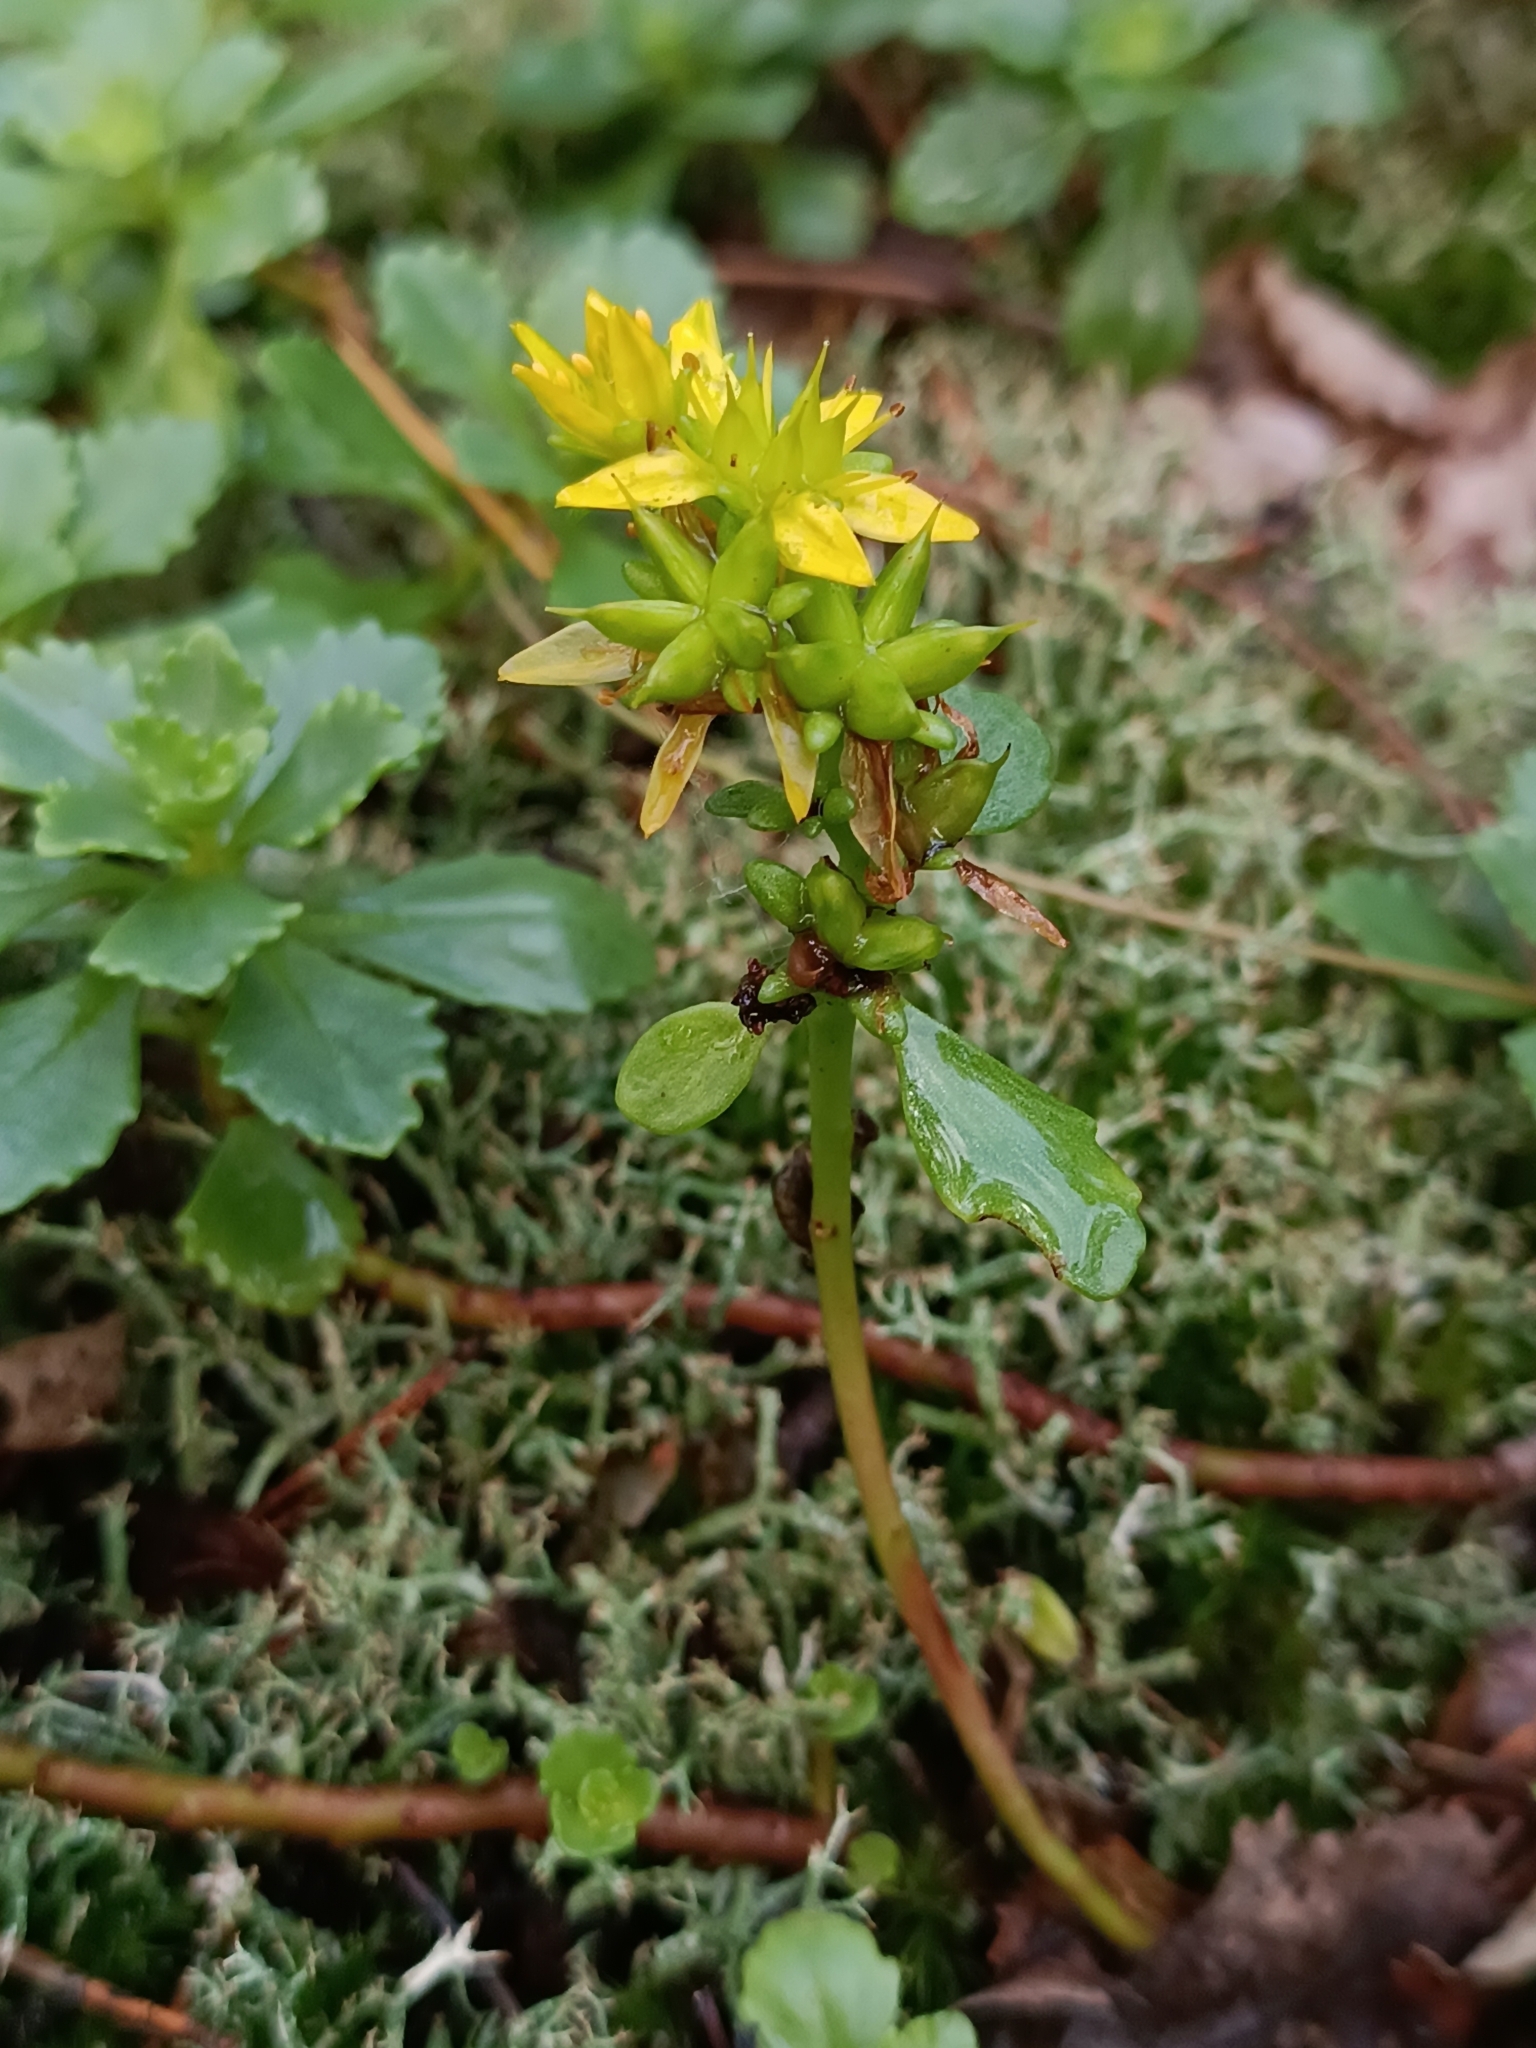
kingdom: Plantae
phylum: Tracheophyta
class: Magnoliopsida
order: Saxifragales
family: Crassulaceae
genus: Phedimus
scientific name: Phedimus hybridus
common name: Hybrid stonecrop
